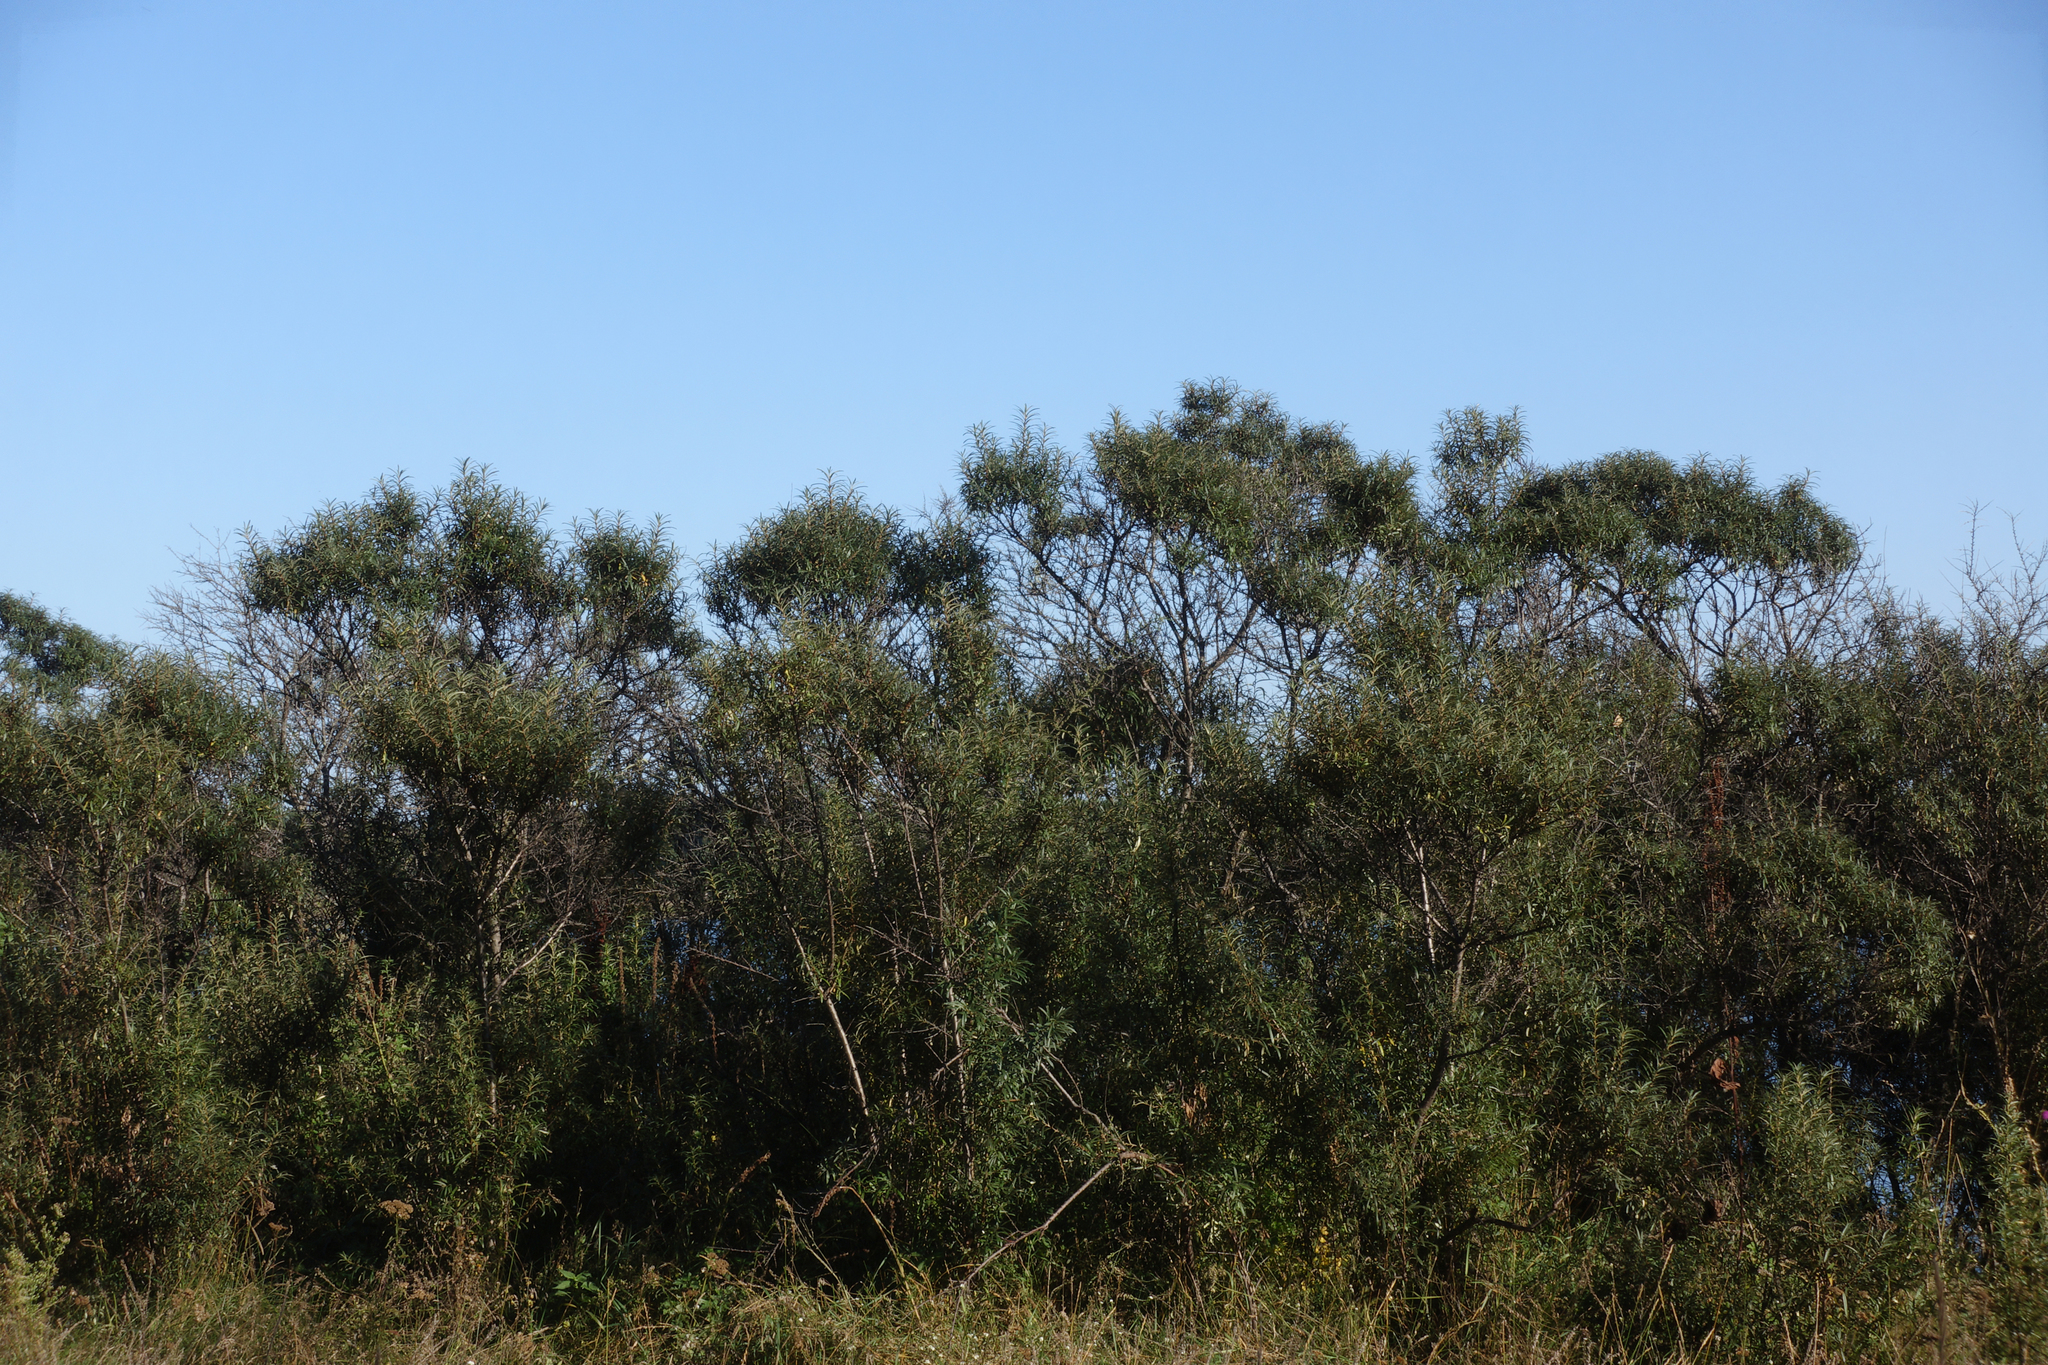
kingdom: Plantae
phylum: Tracheophyta
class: Magnoliopsida
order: Rosales
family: Elaeagnaceae
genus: Hippophae
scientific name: Hippophae rhamnoides
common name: Sea-buckthorn
